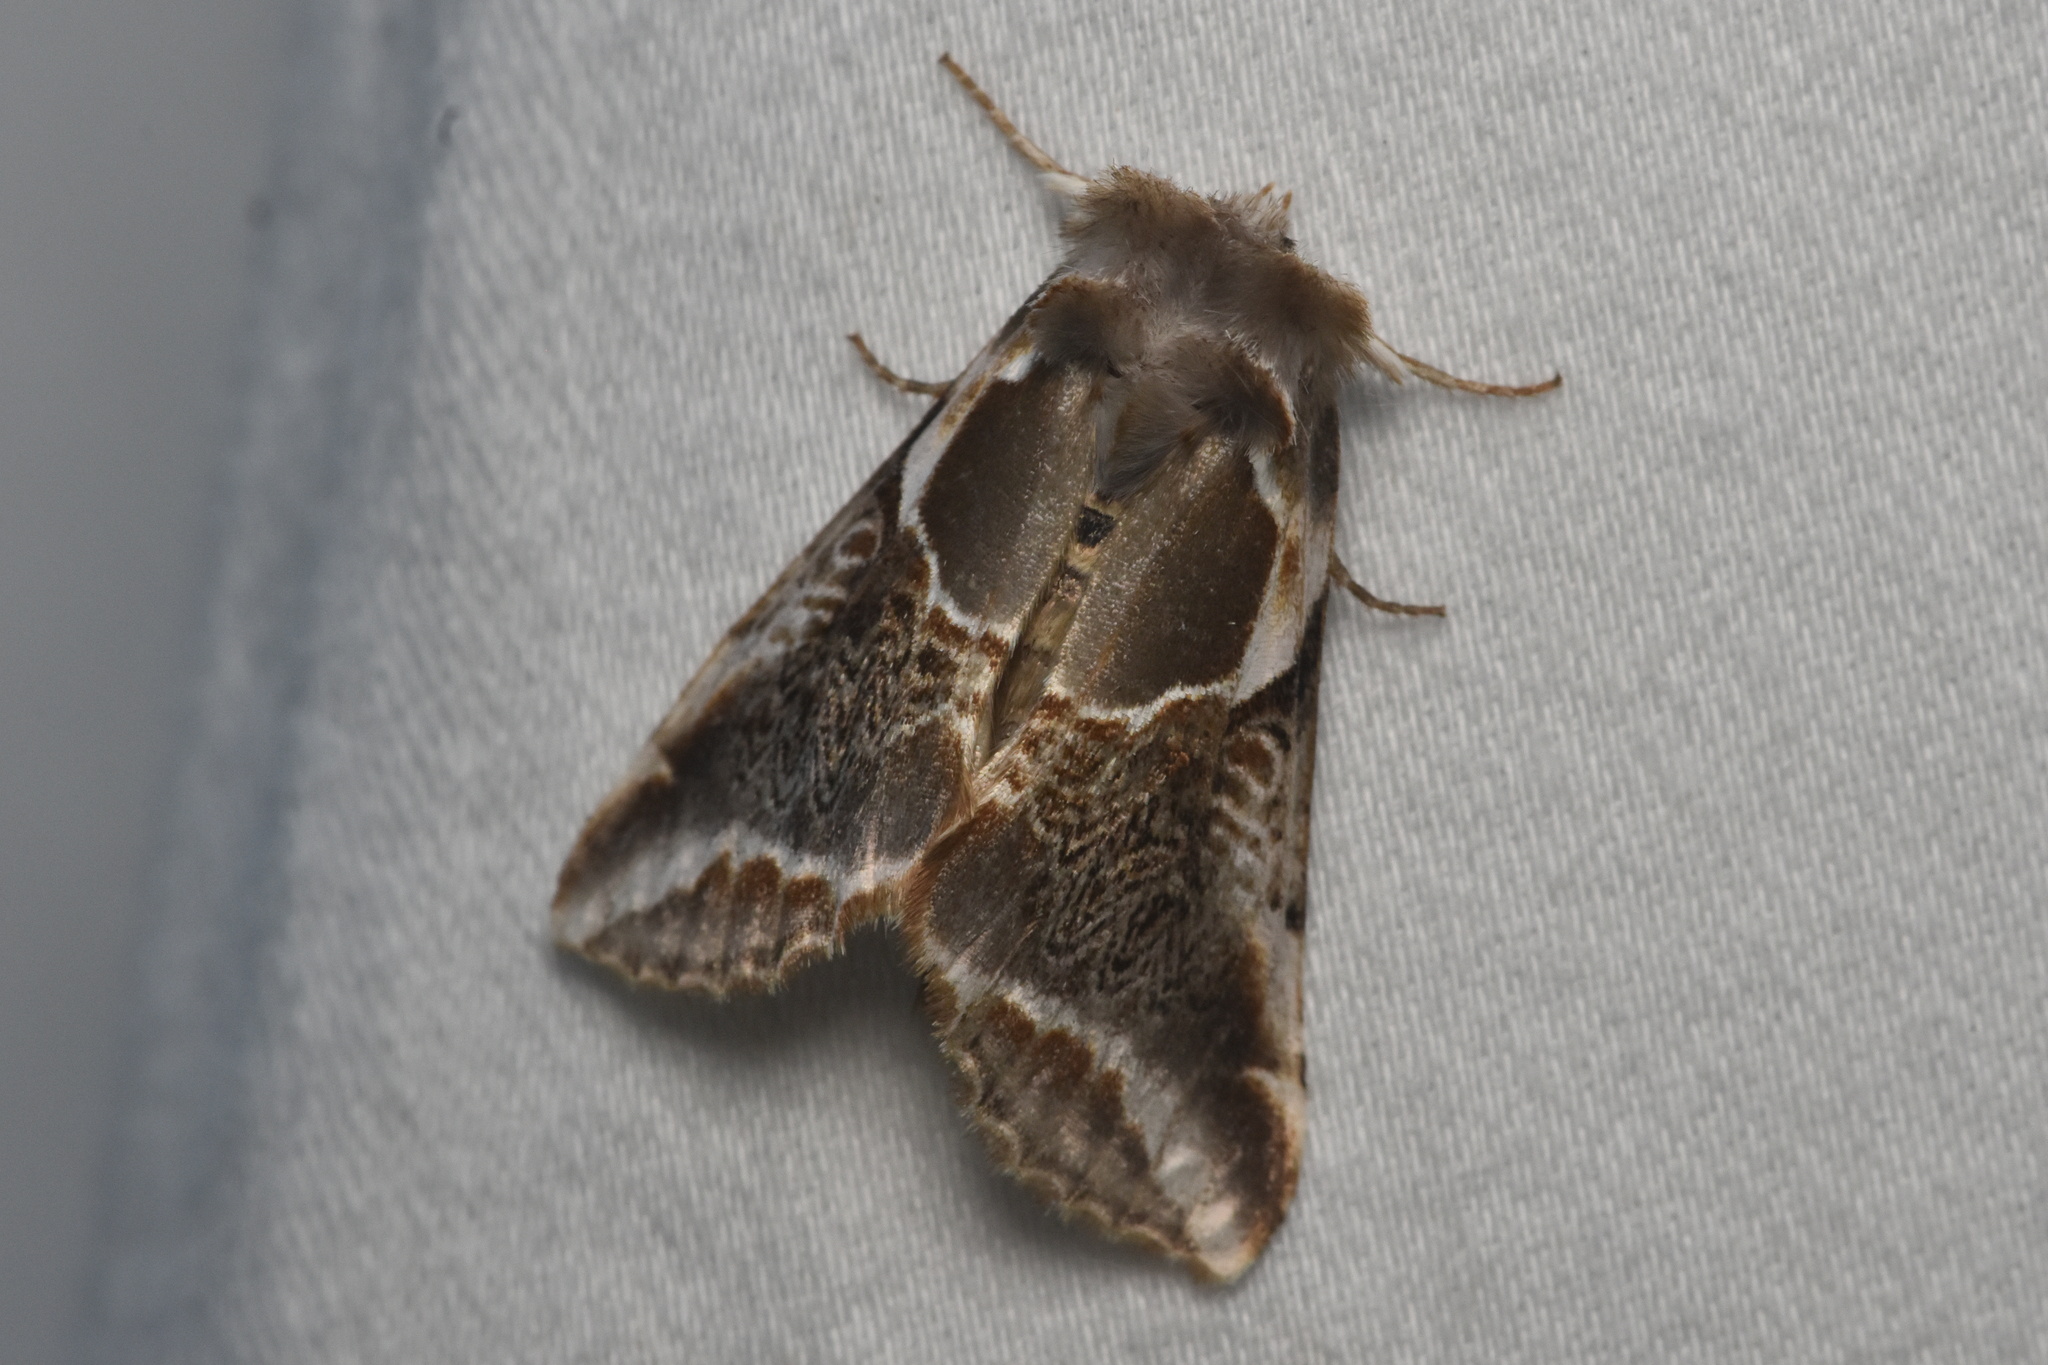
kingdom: Animalia
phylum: Arthropoda
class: Insecta
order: Lepidoptera
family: Drepanidae
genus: Habrosyne
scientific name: Habrosyne scripta
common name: Lettered habrosyne moth
